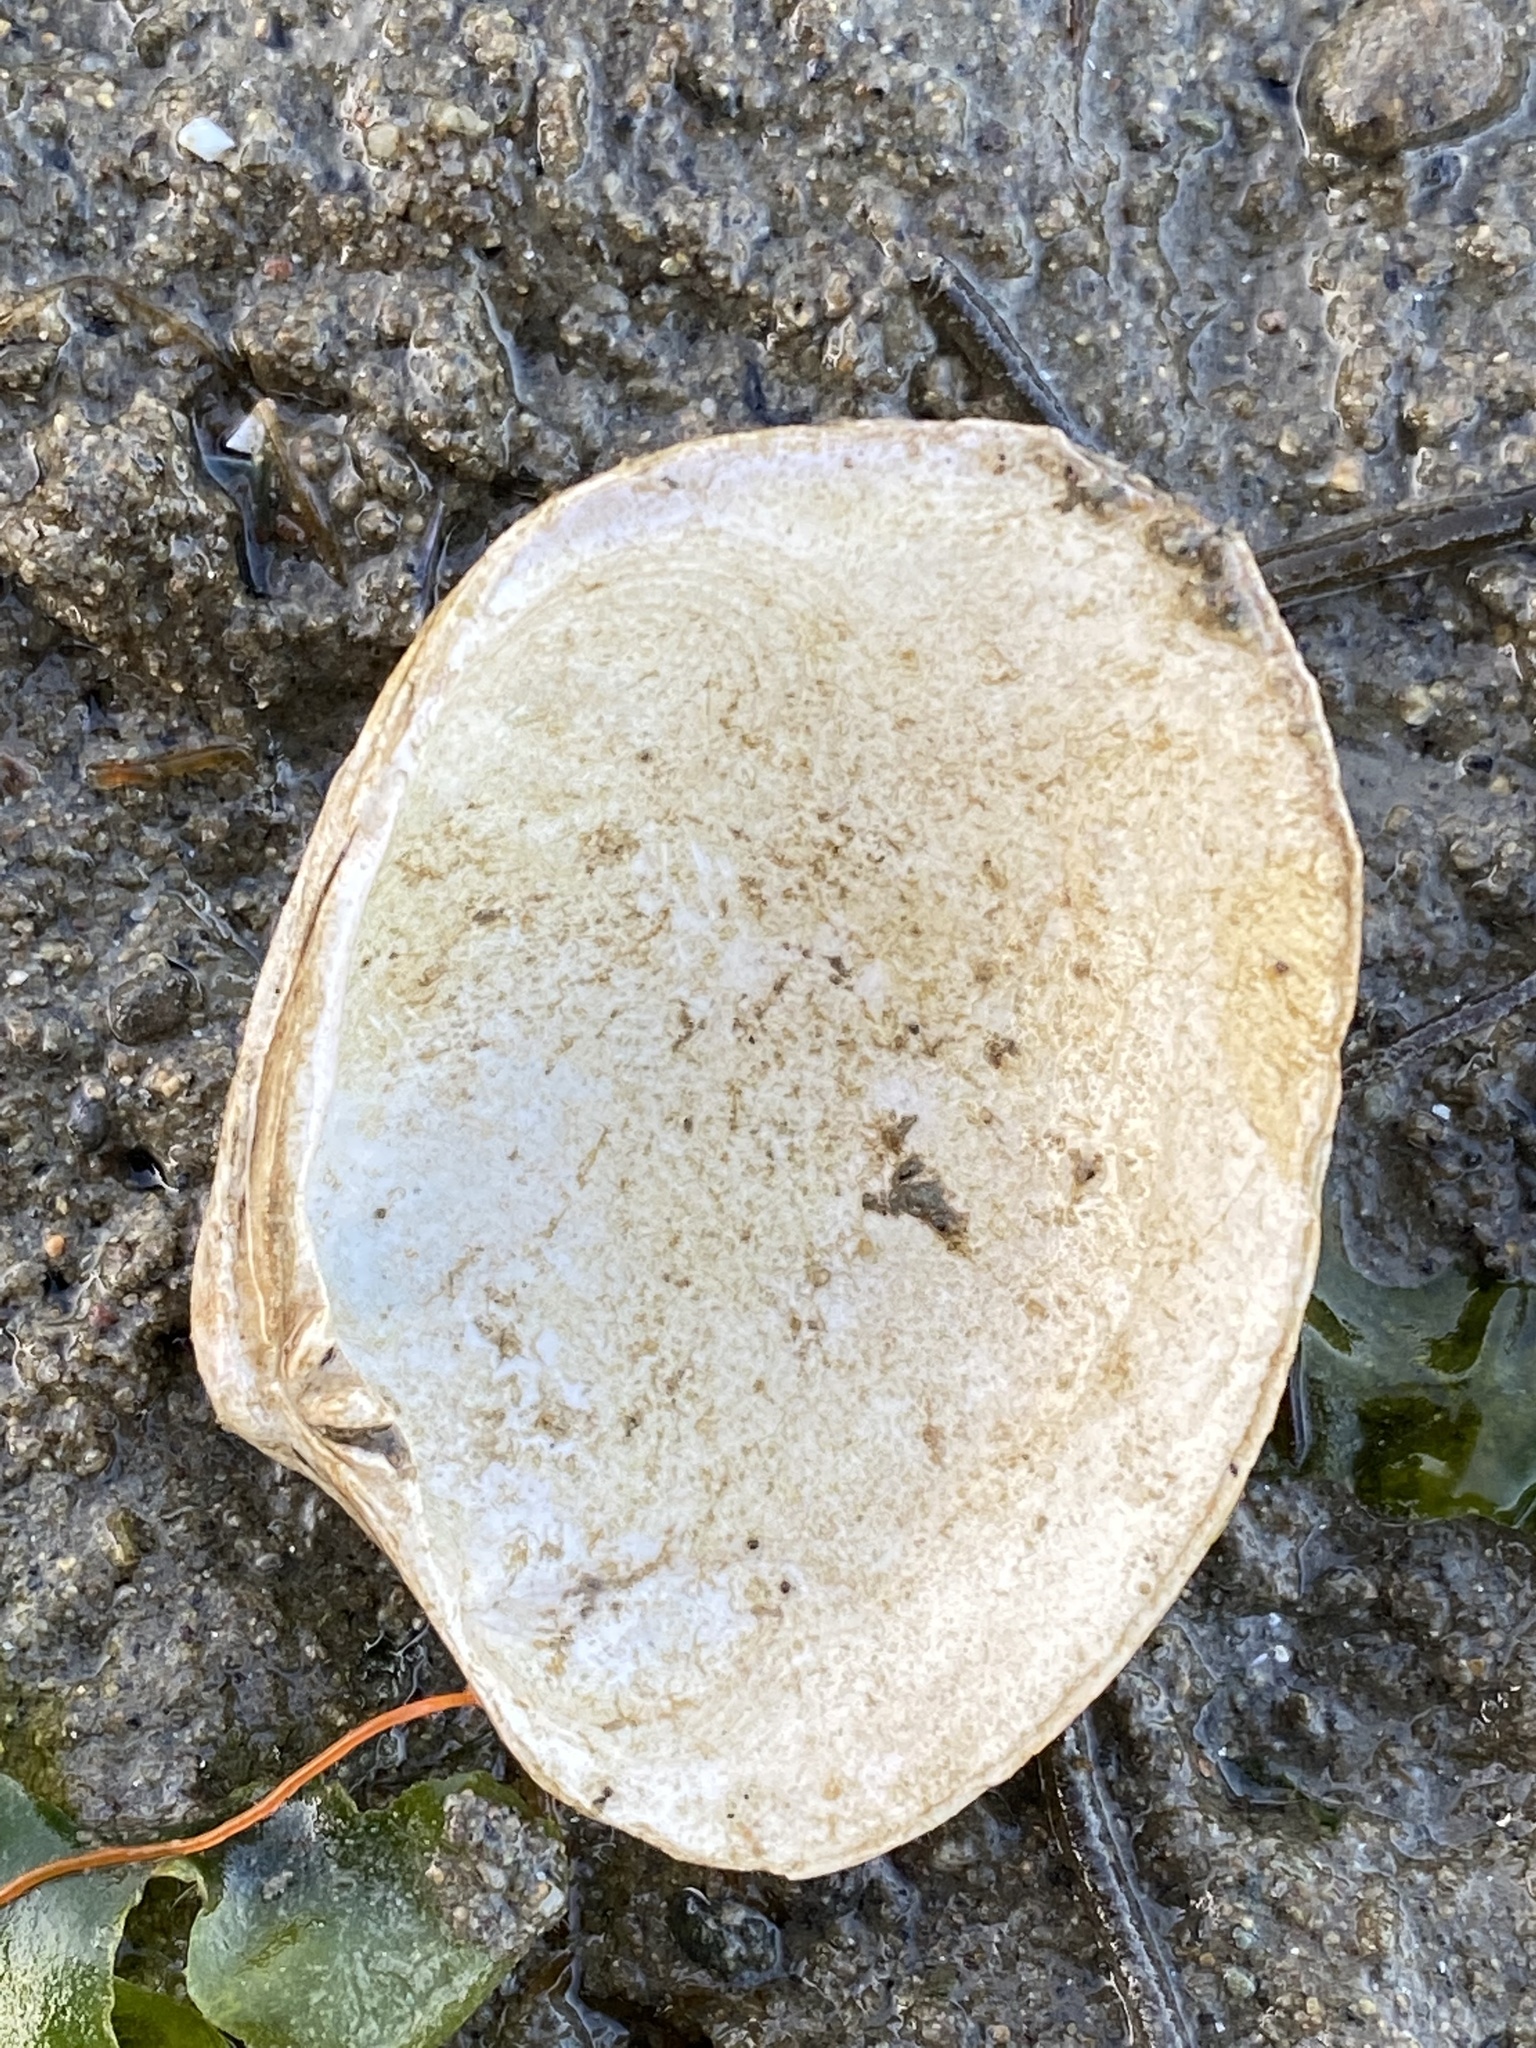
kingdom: Animalia
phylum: Mollusca
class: Bivalvia
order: Venerida
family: Veneridae
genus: Ruditapes
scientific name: Ruditapes philippinarum
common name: Manila clam
